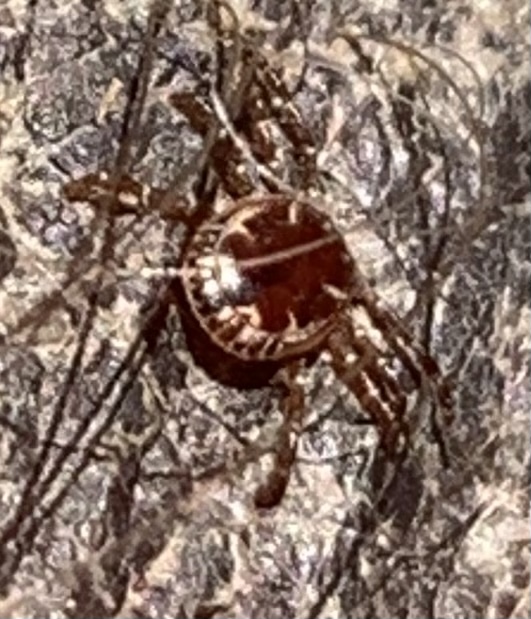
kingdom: Animalia
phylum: Arthropoda
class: Arachnida
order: Ixodida
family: Ixodidae
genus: Amblyomma
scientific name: Amblyomma americanum
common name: Lone star tick
